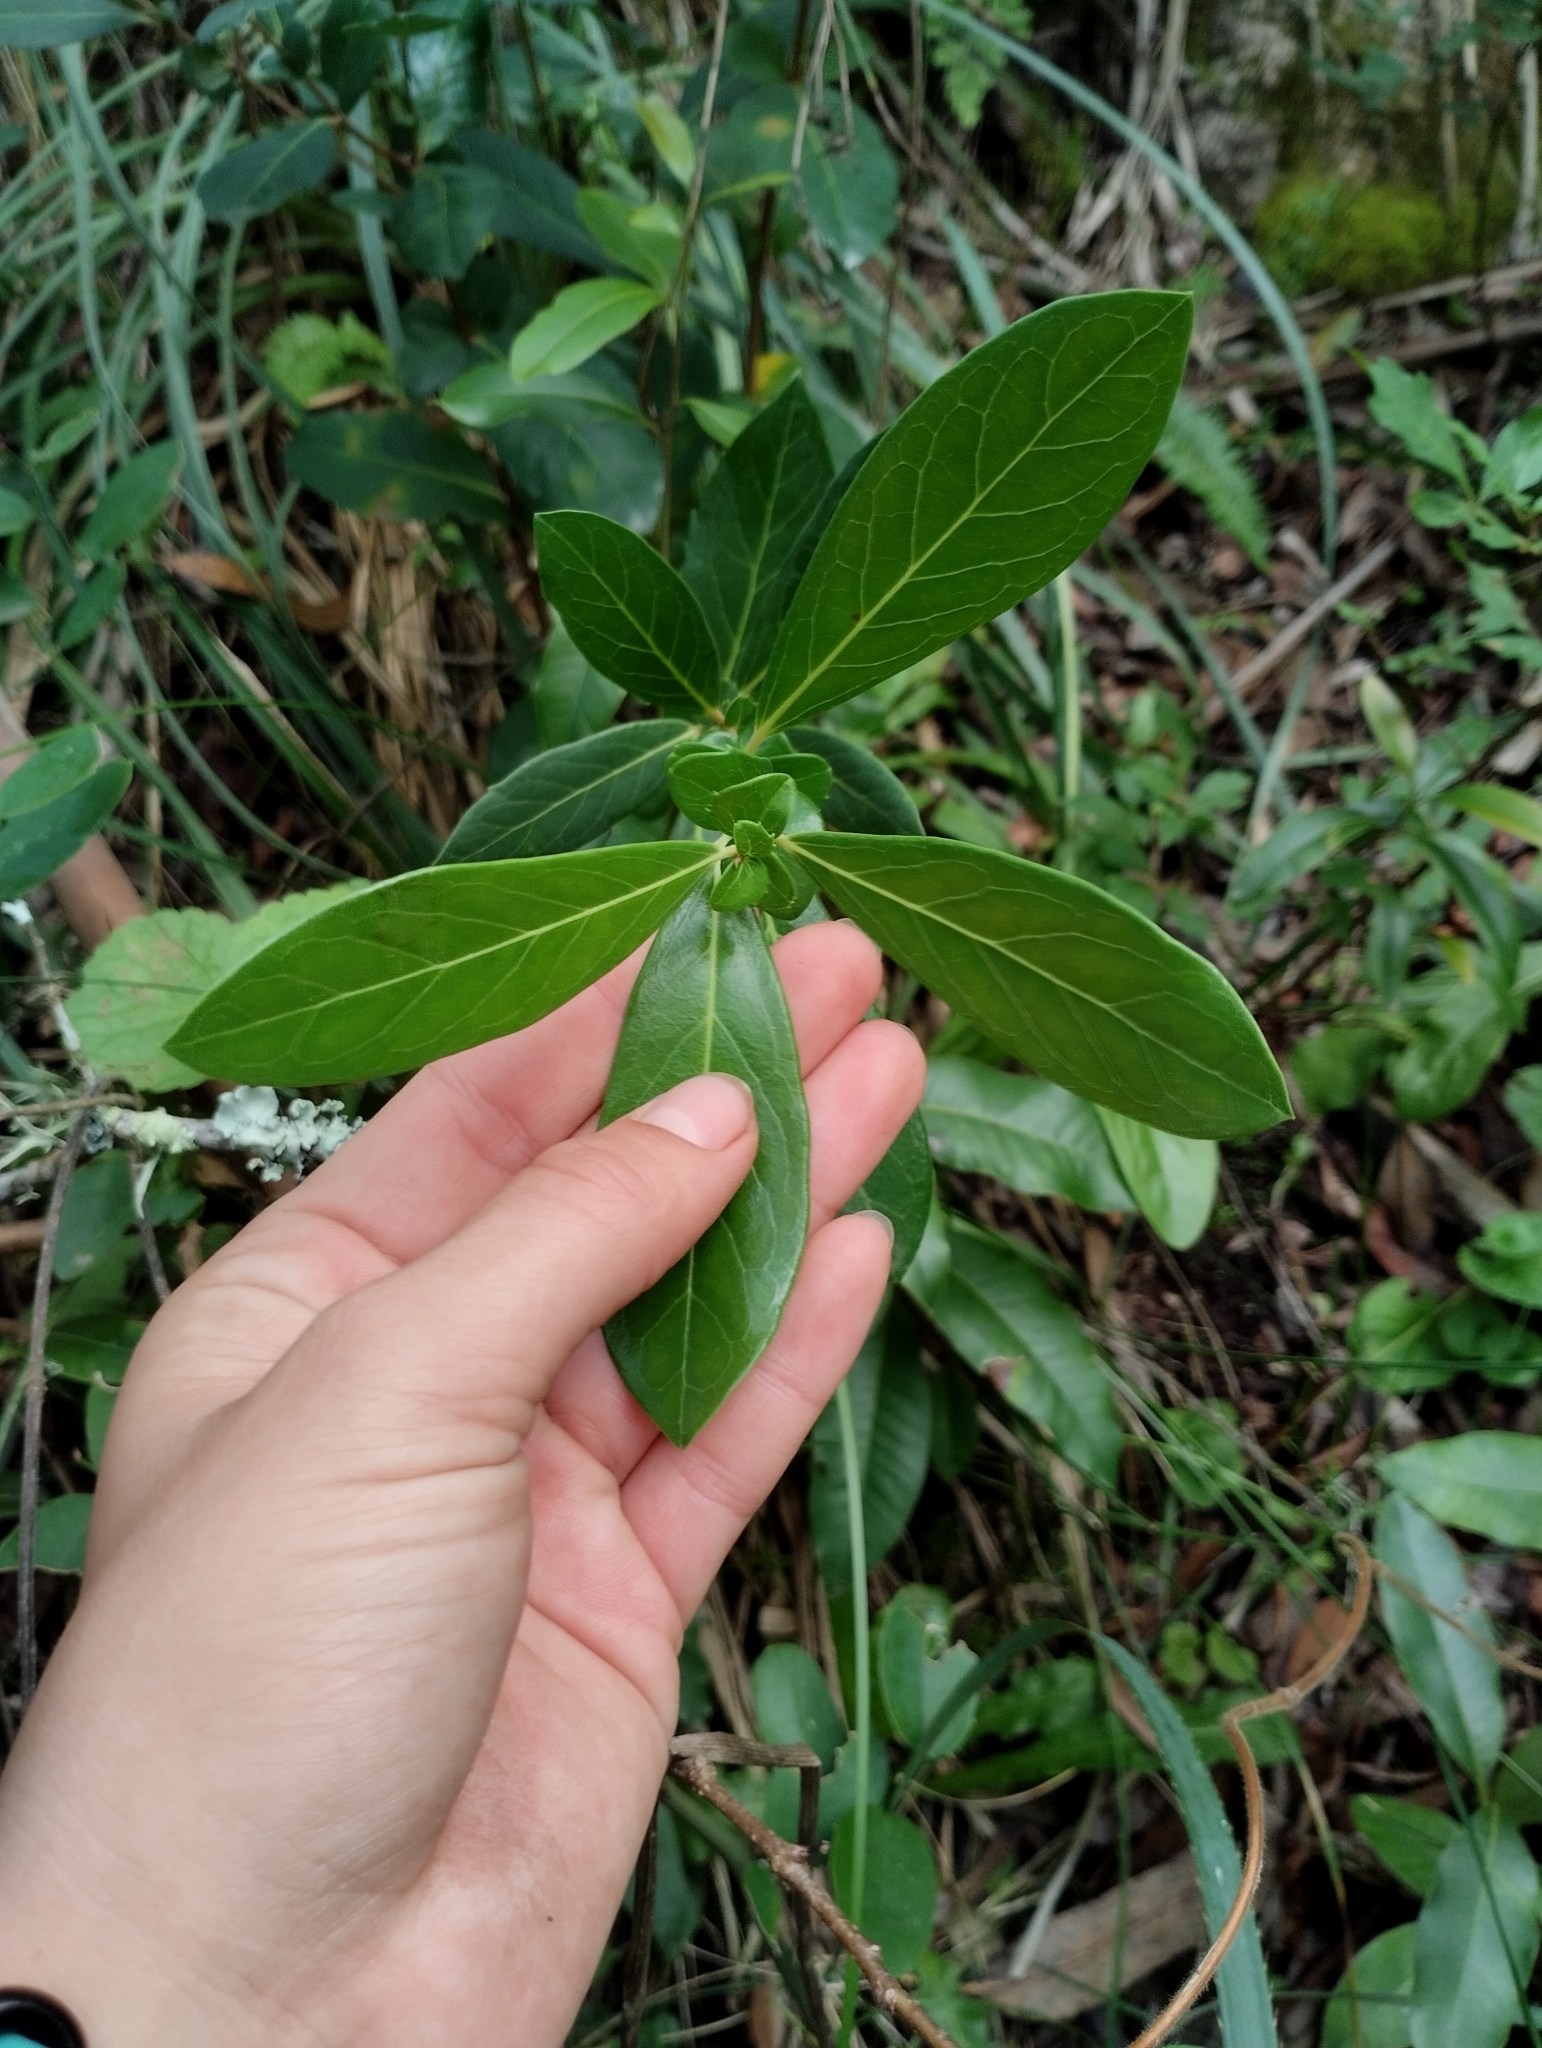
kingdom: Plantae
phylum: Tracheophyta
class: Magnoliopsida
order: Malpighiales
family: Salicaceae
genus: Azara
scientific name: Azara uruguayensis
